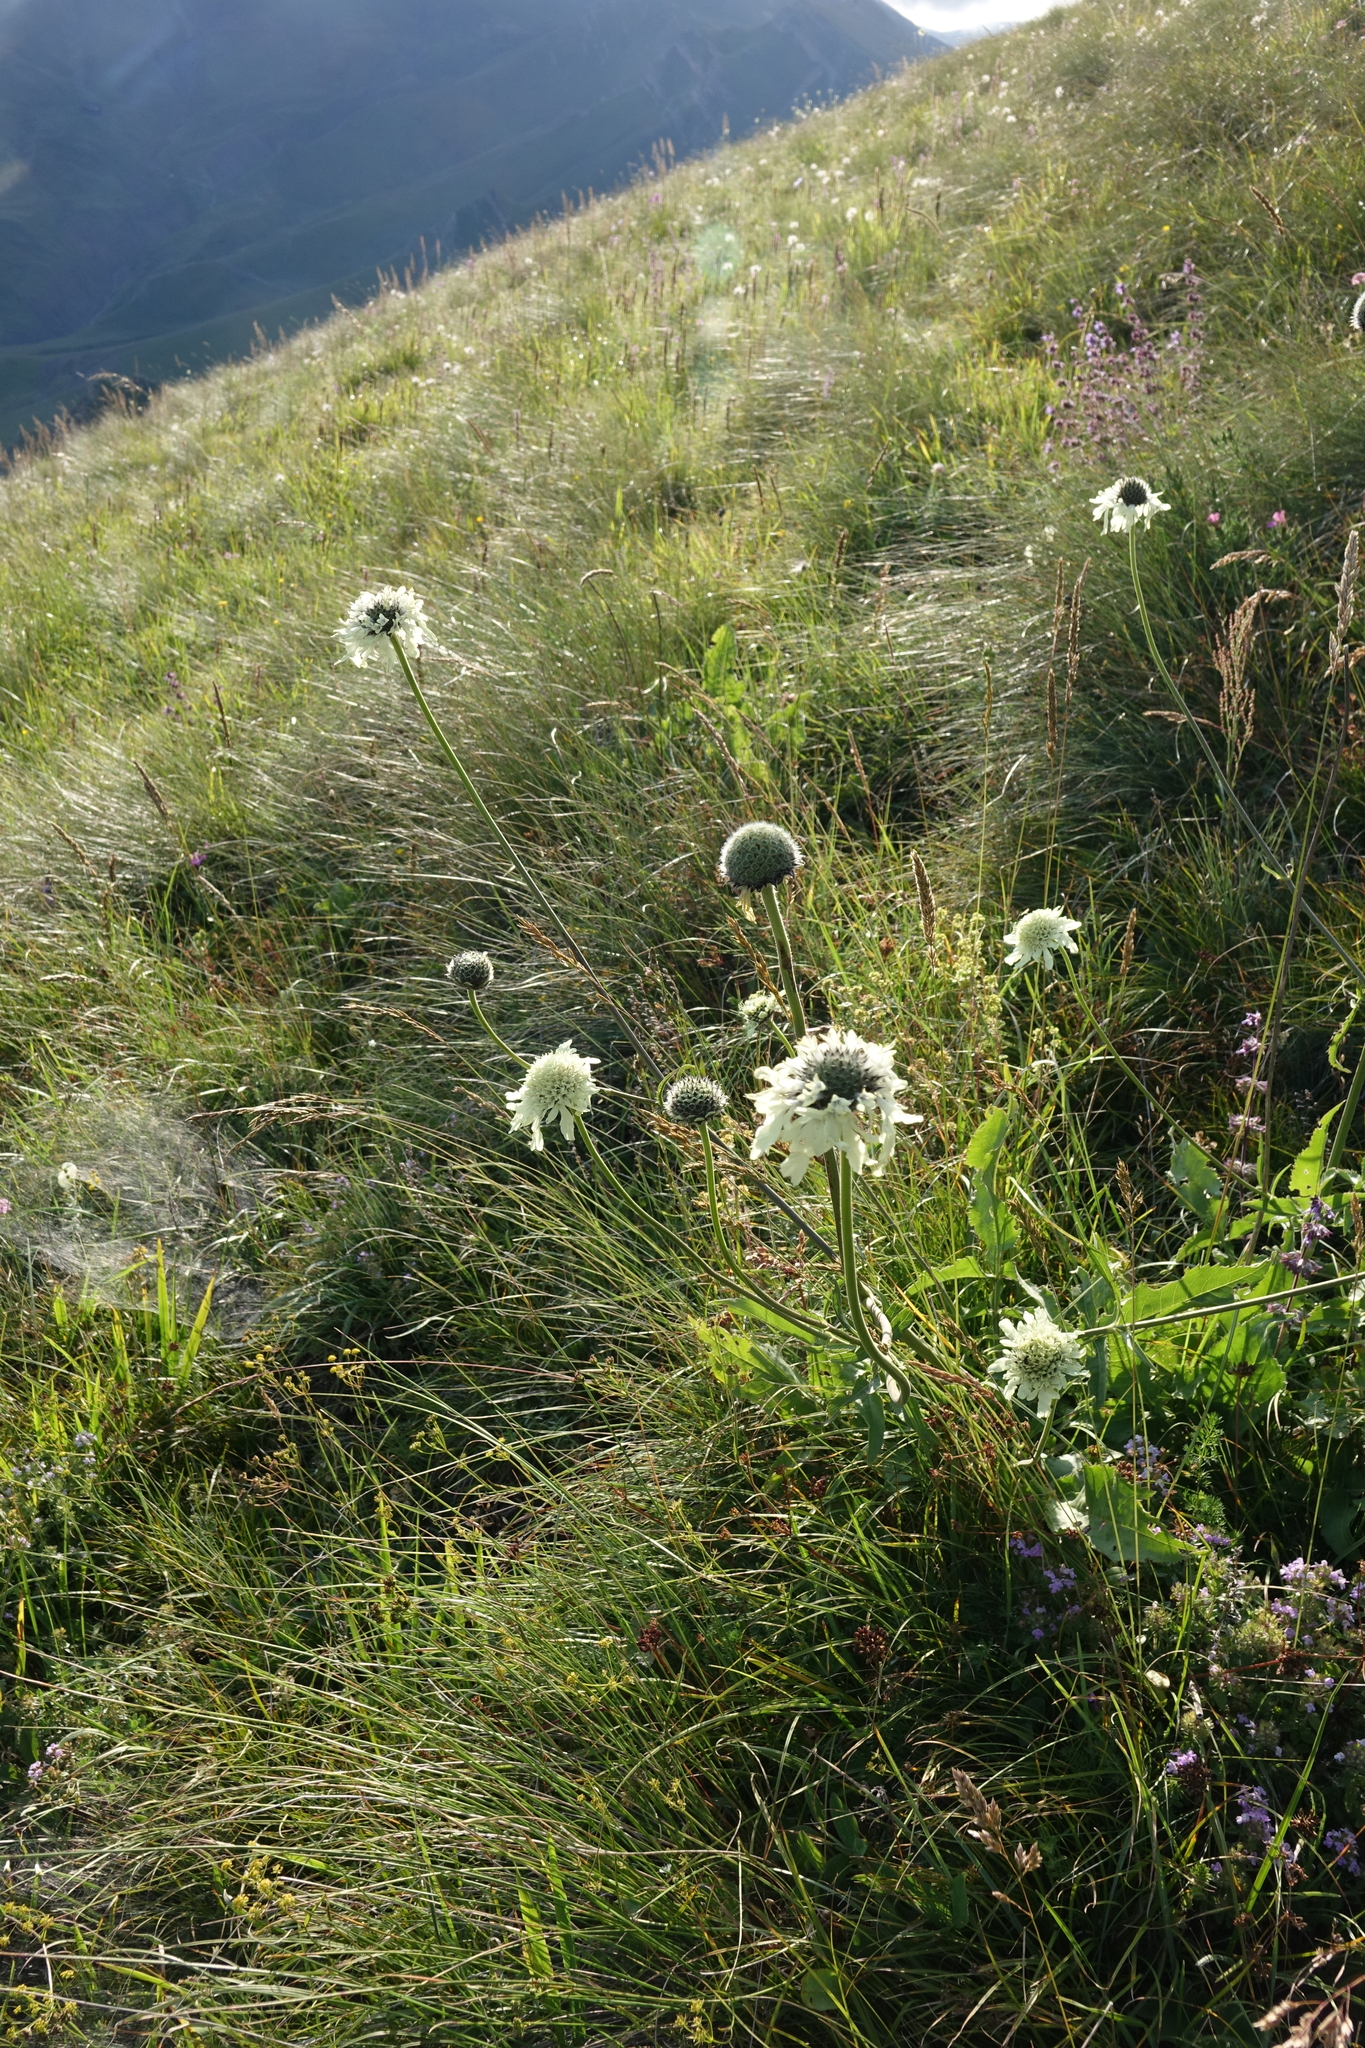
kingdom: Plantae
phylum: Tracheophyta
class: Magnoliopsida
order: Dipsacales
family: Caprifoliaceae
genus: Cephalaria
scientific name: Cephalaria gigantea
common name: Tatarian cephalaria
